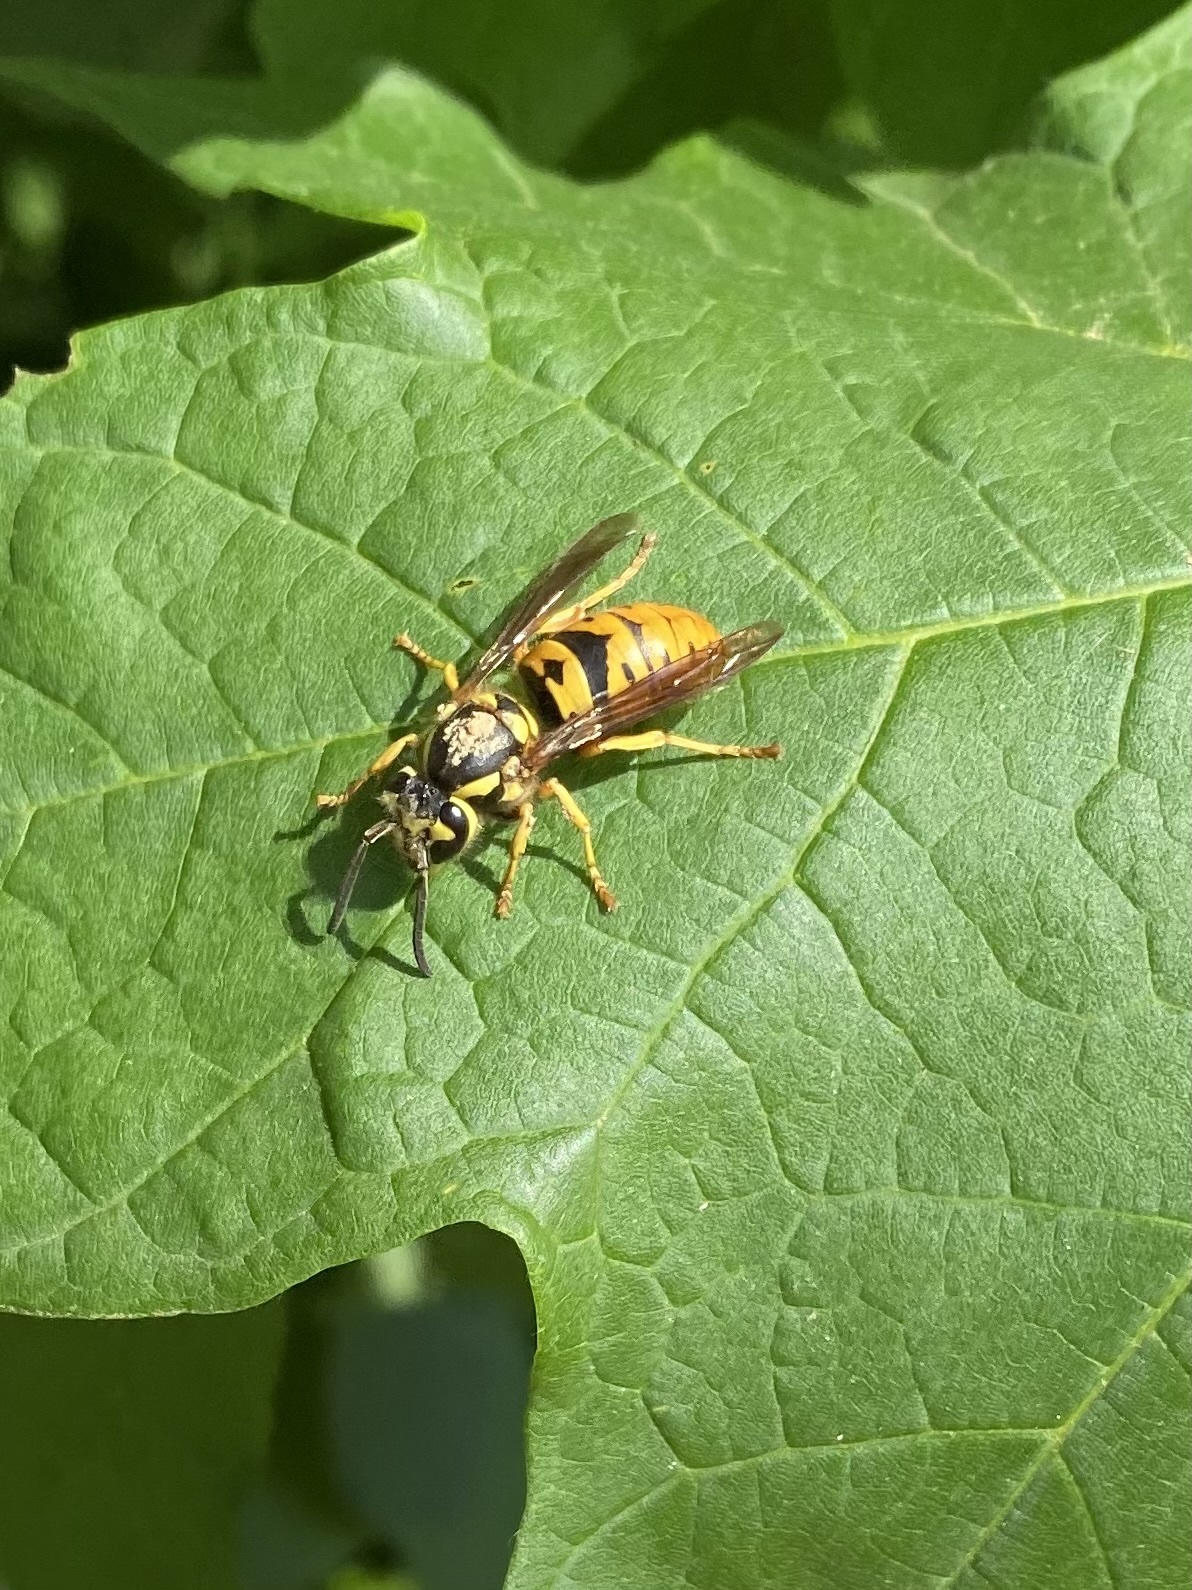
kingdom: Animalia
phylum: Arthropoda
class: Insecta
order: Hymenoptera
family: Vespidae
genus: Vespula
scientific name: Vespula maculifrons
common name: Eastern yellowjacket
